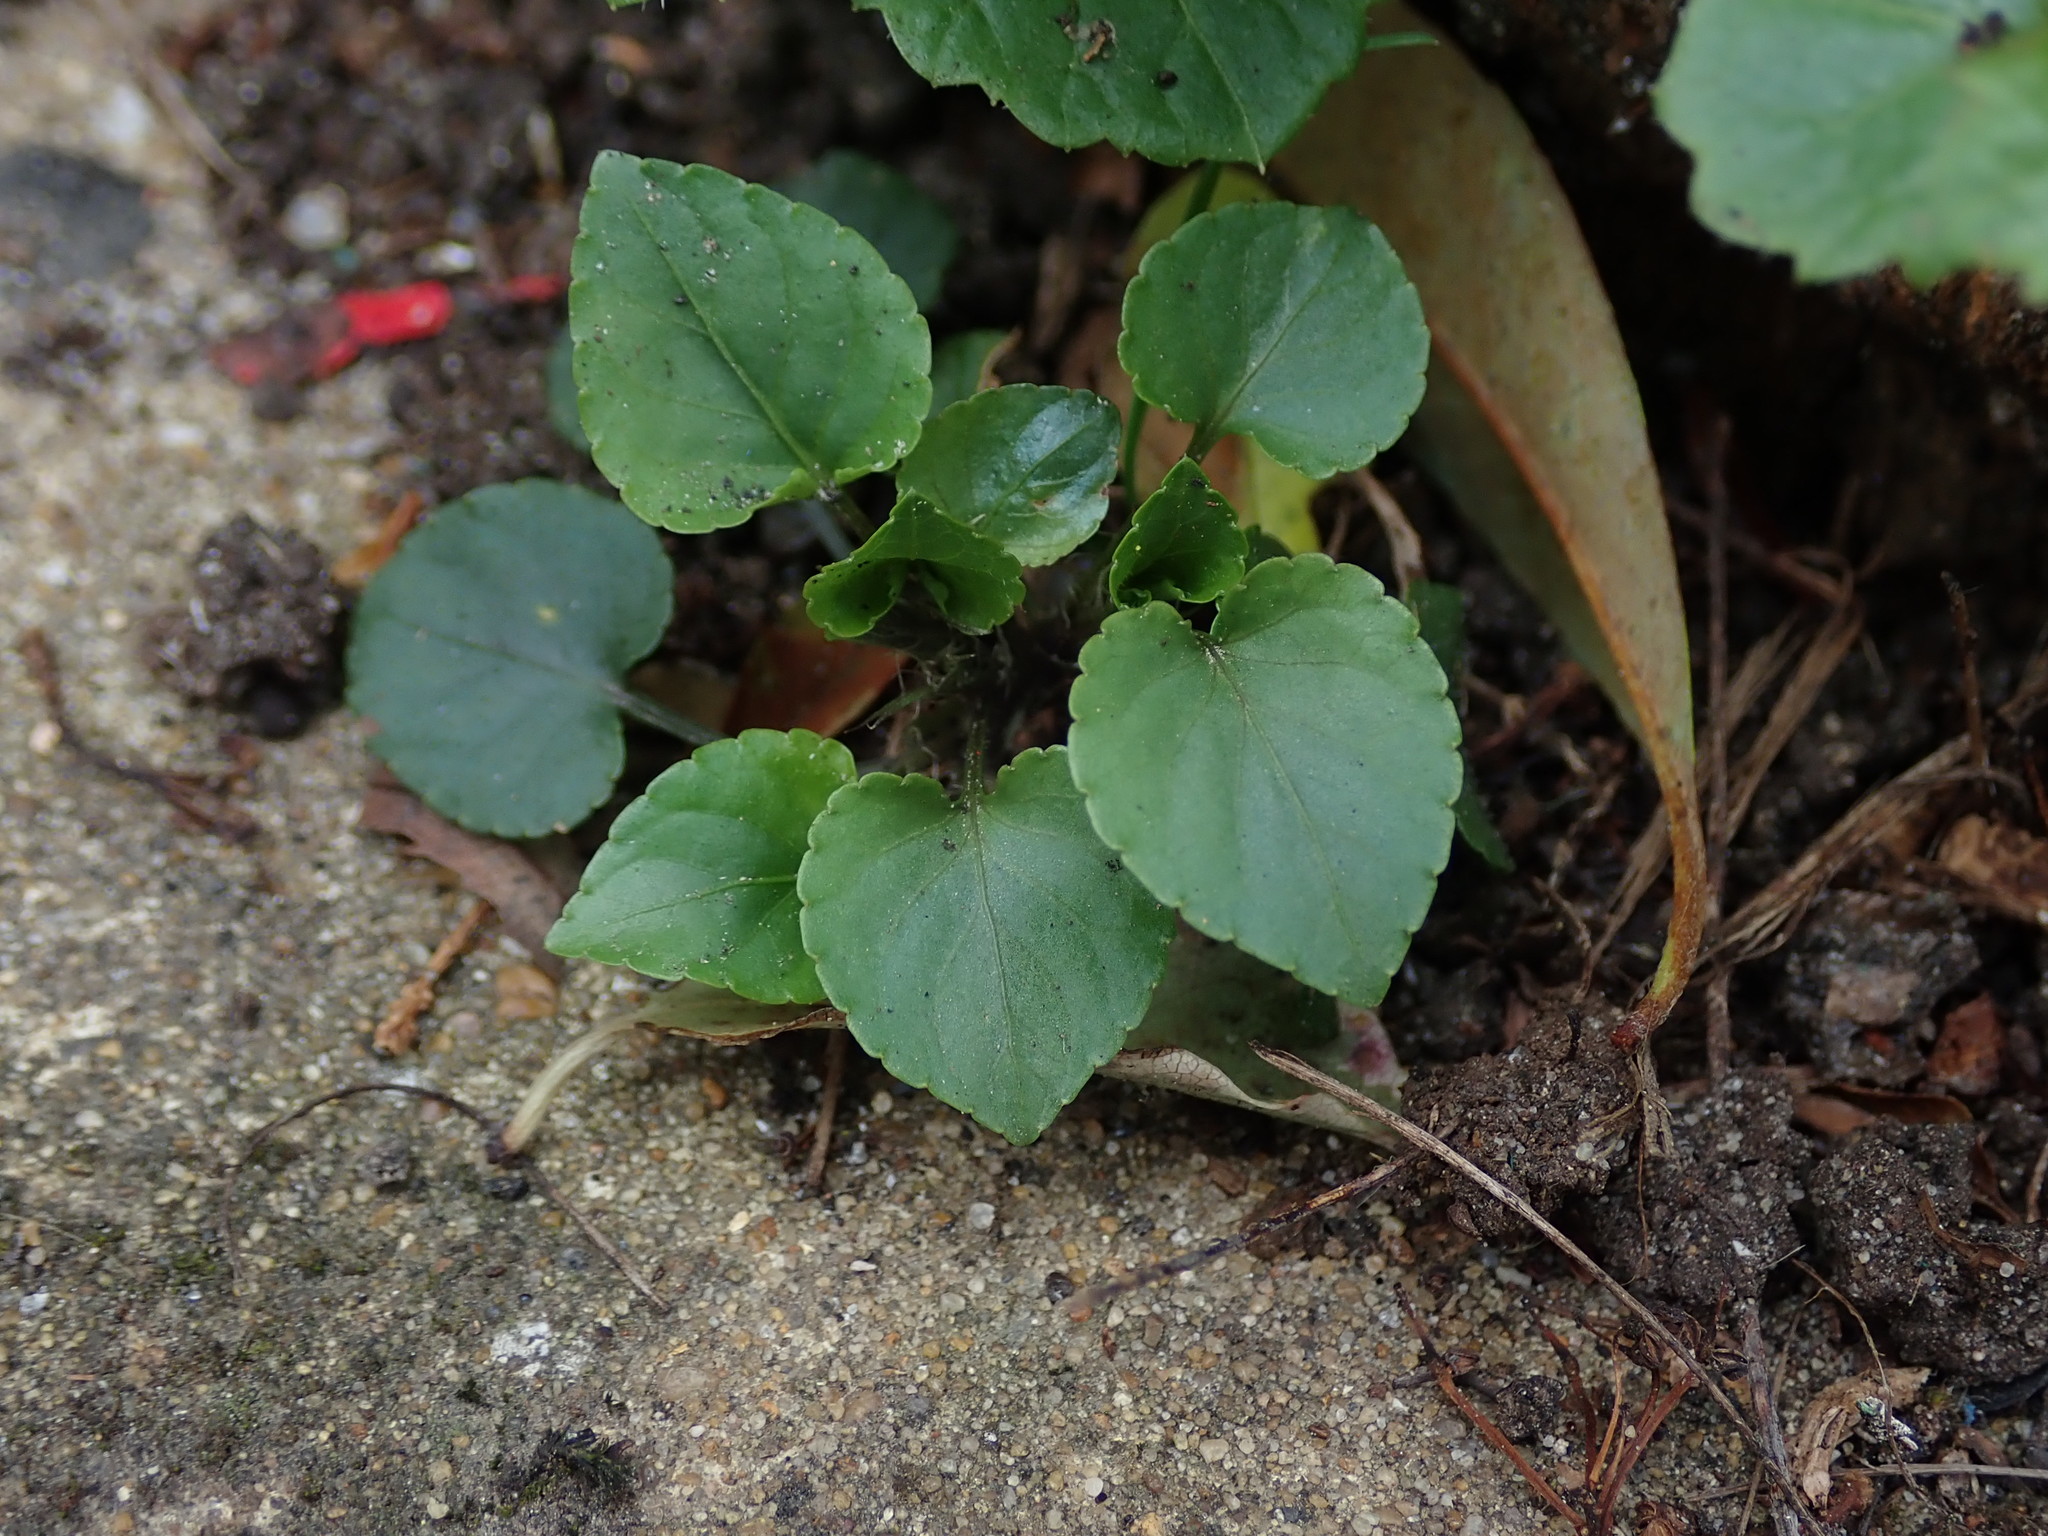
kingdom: Plantae
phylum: Tracheophyta
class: Magnoliopsida
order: Malpighiales
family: Violaceae
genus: Viola
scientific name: Viola reichenbachiana
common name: Early dog-violet
